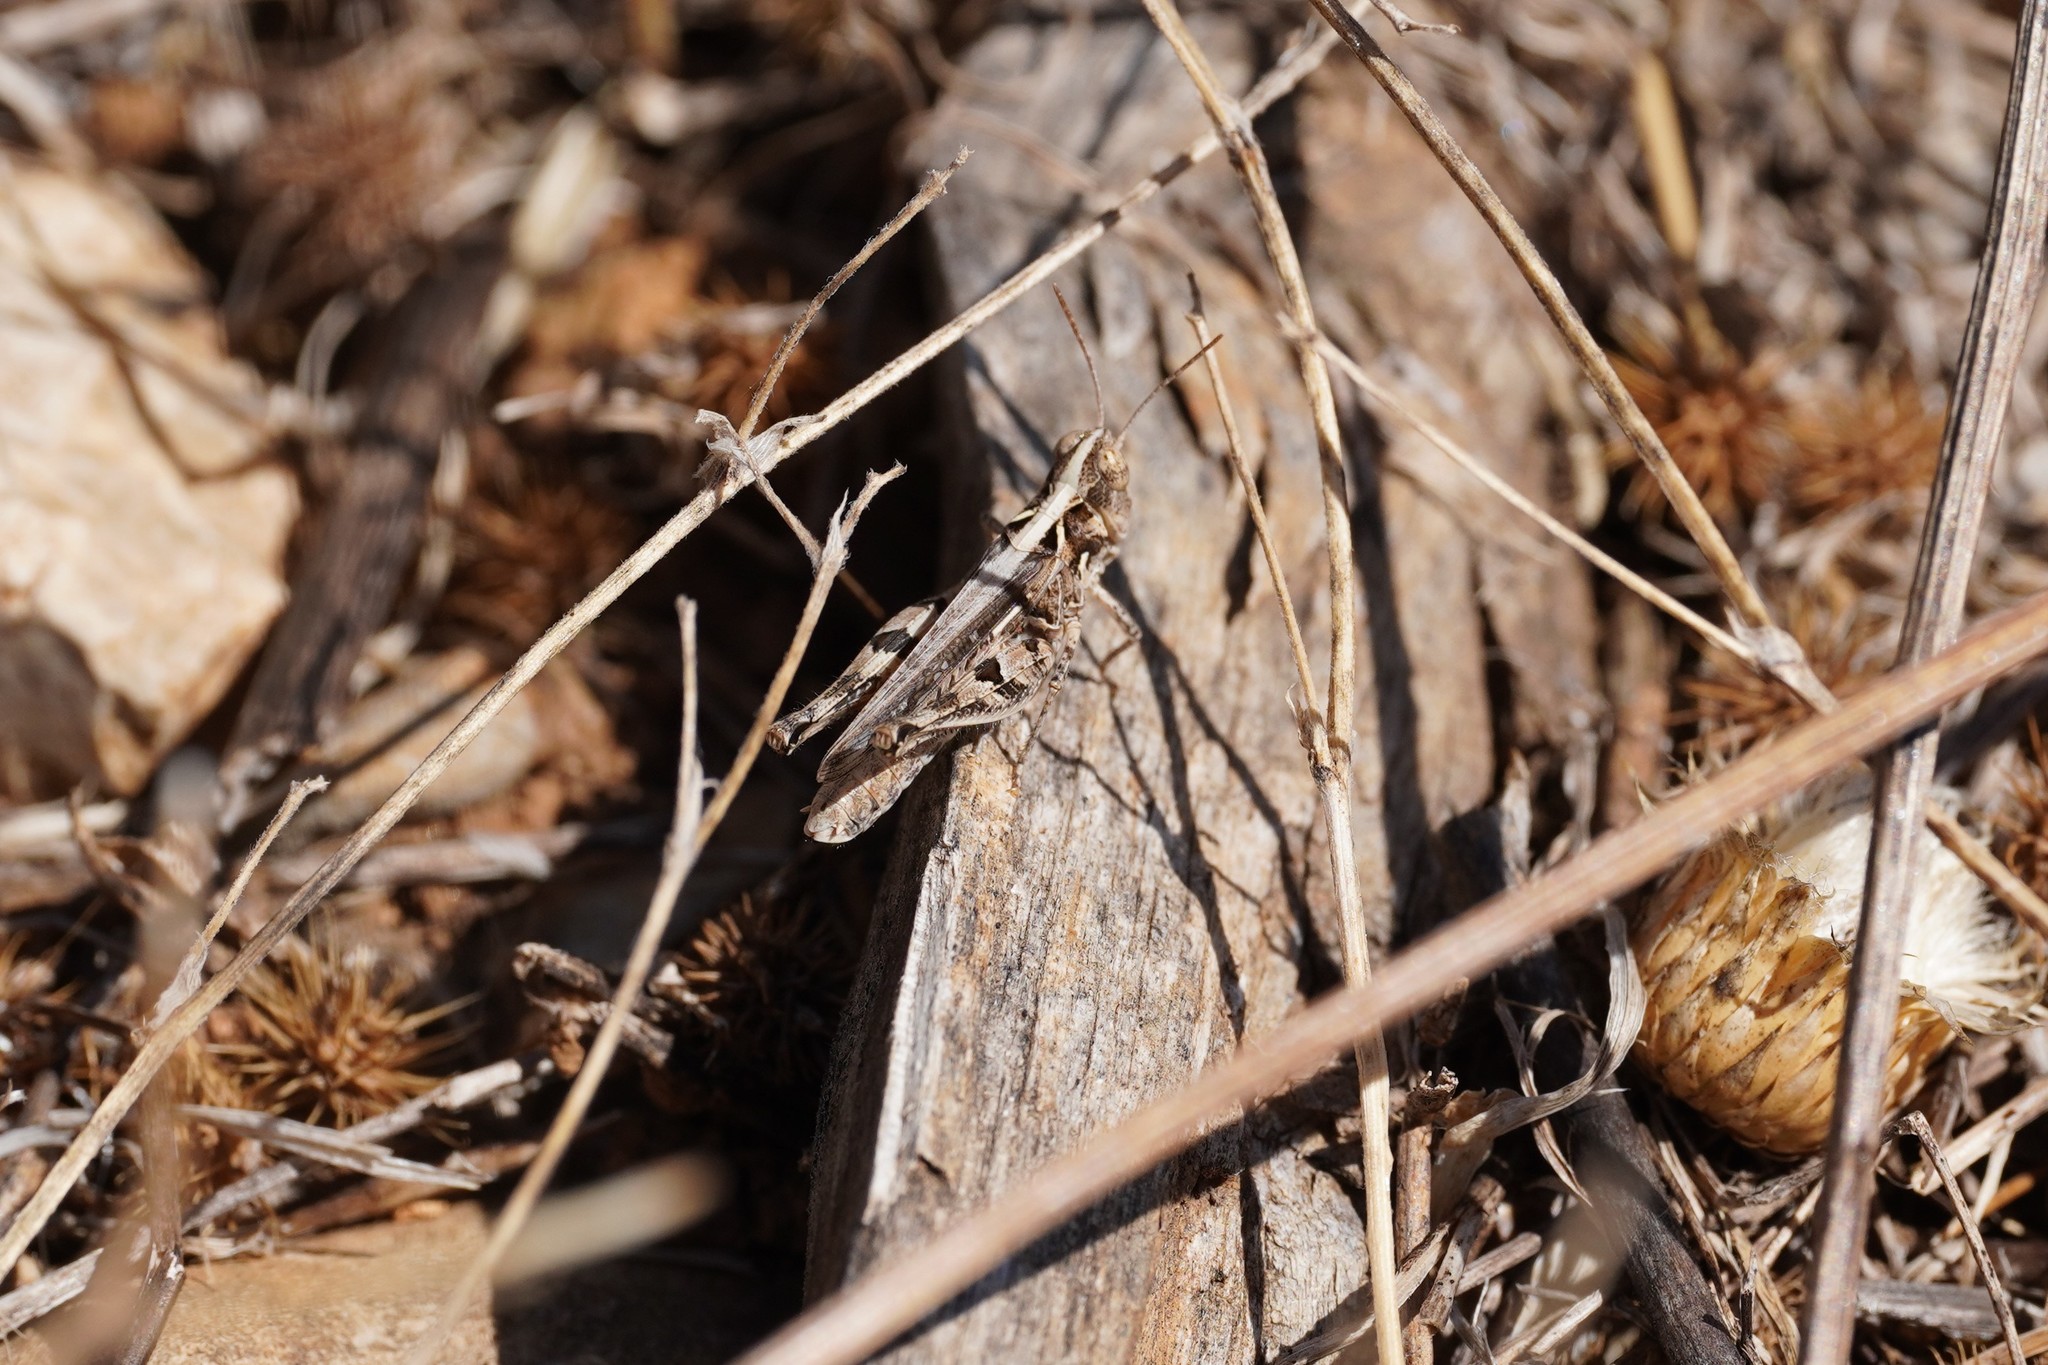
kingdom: Animalia
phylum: Arthropoda
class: Insecta
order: Orthoptera
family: Acrididae
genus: Dociostaurus
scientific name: Dociostaurus jagoi
